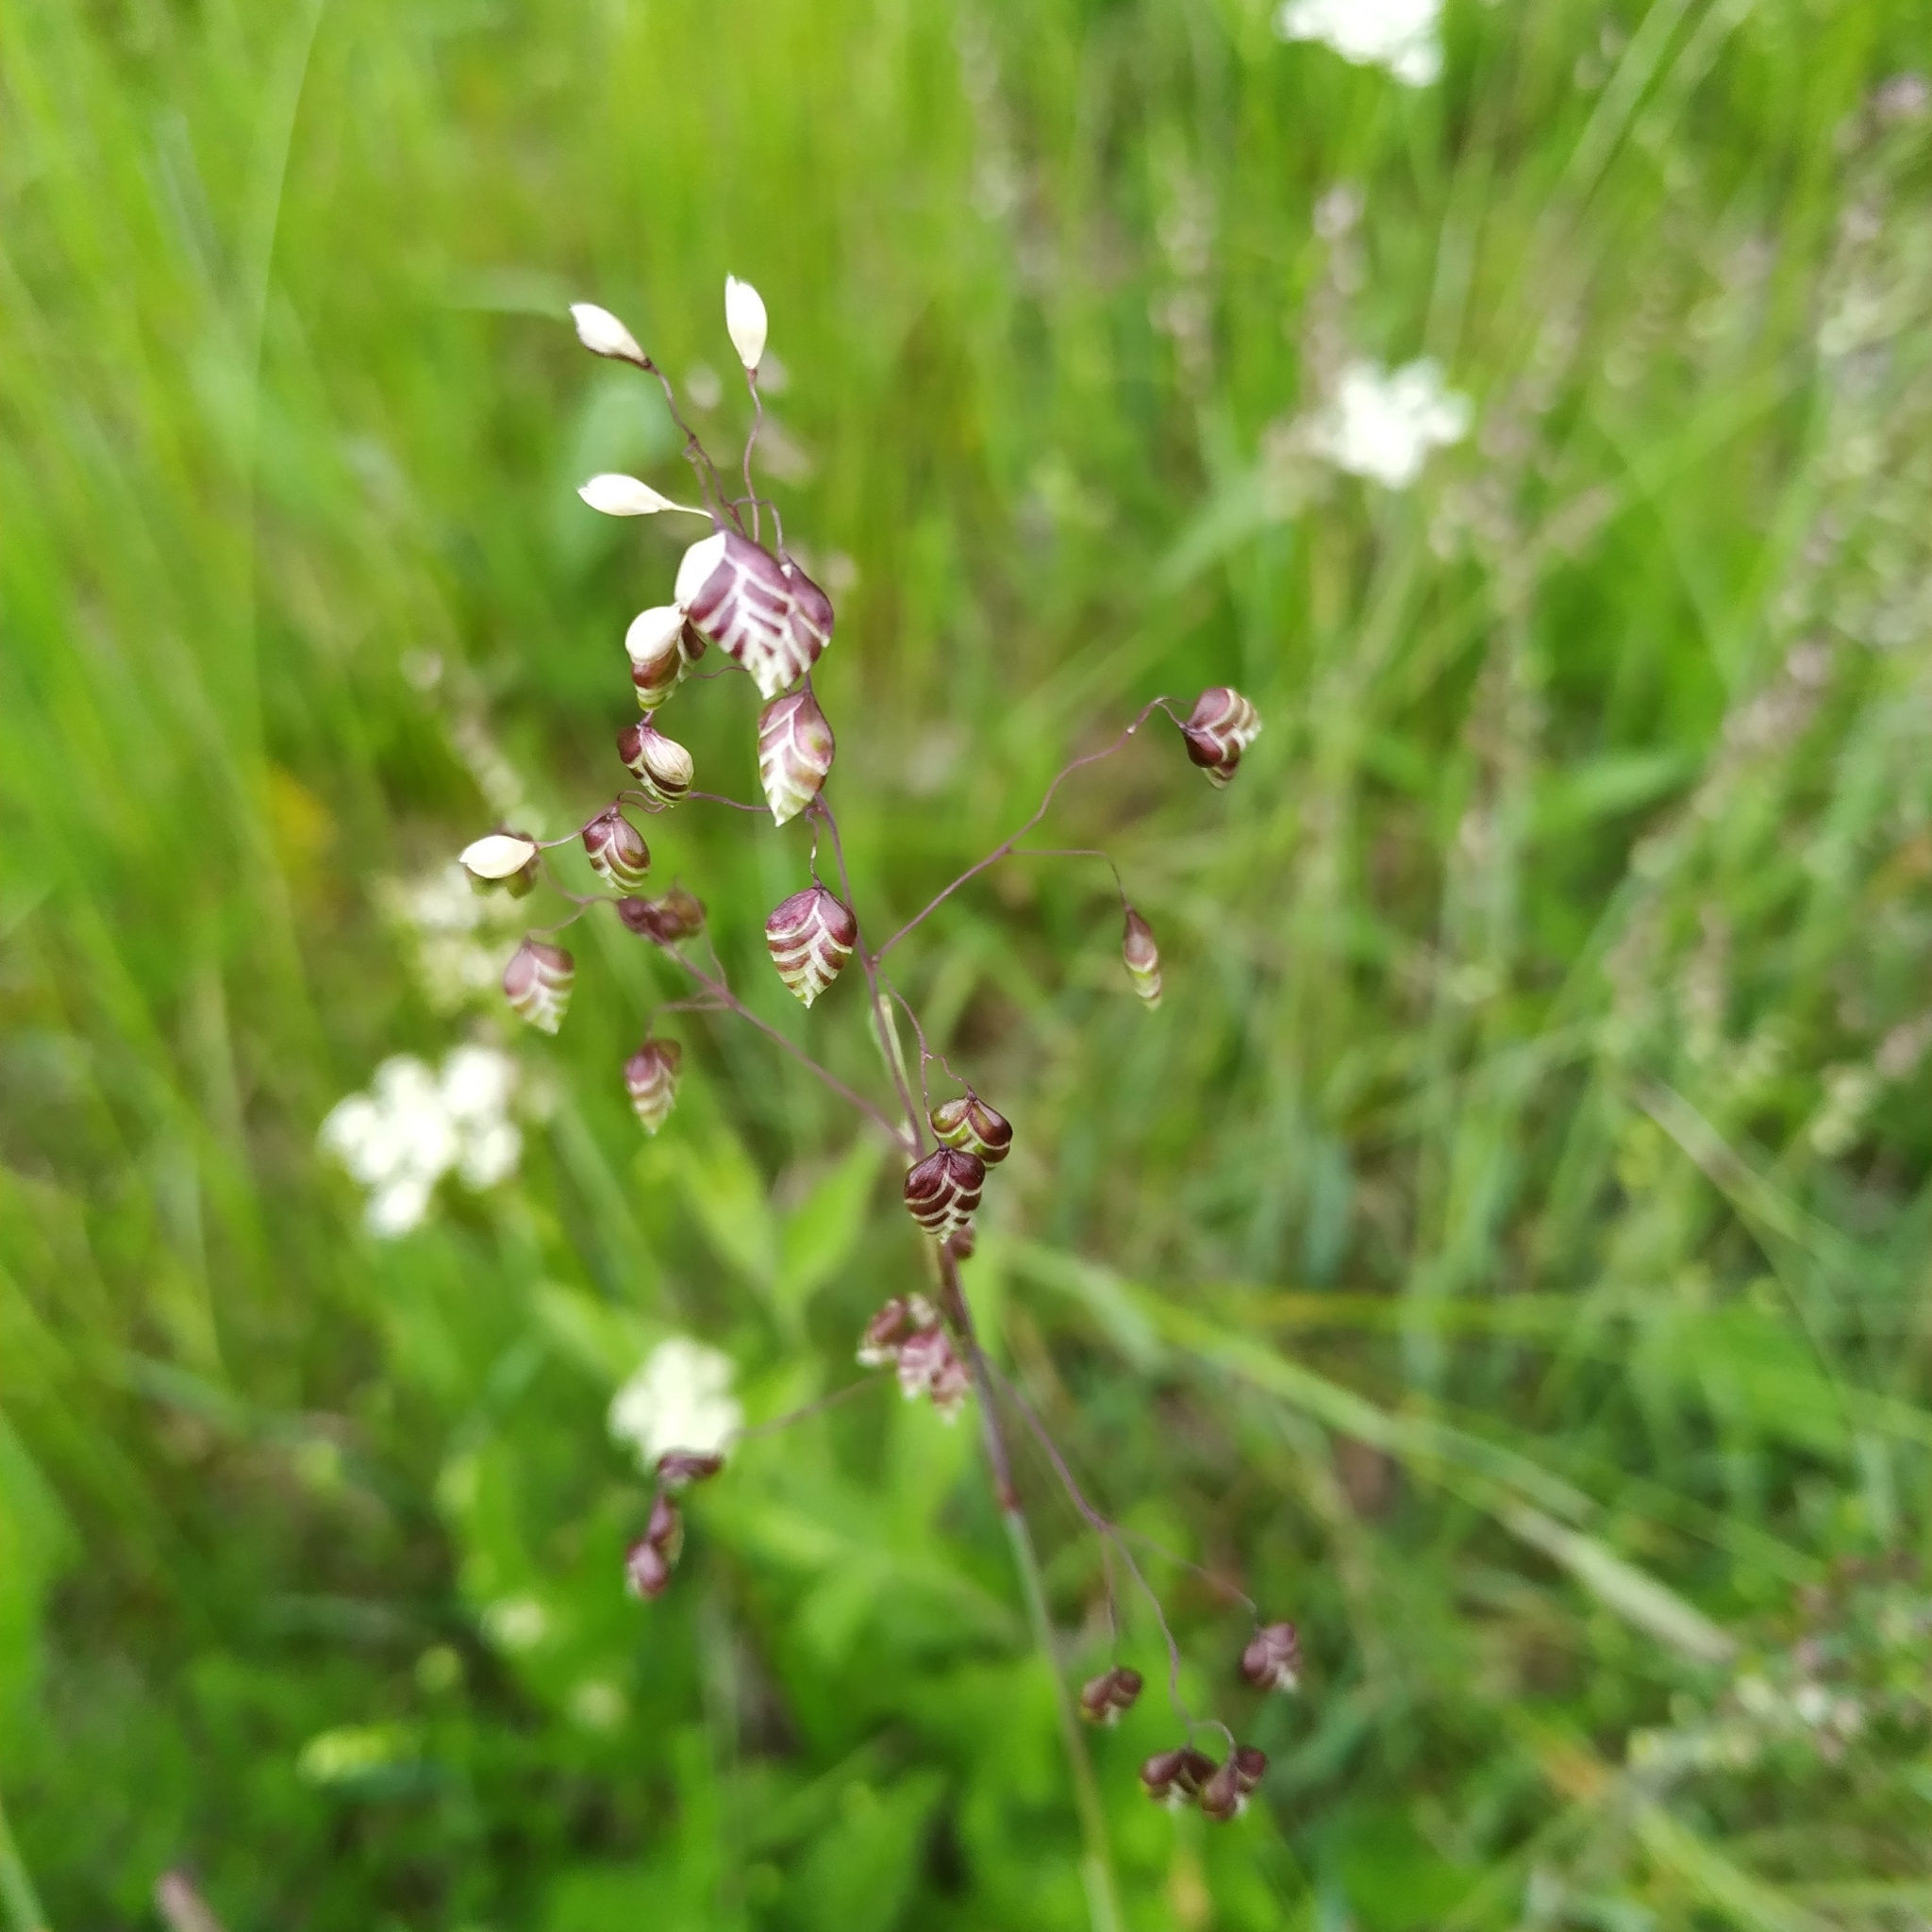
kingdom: Plantae
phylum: Tracheophyta
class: Liliopsida
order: Poales
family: Poaceae
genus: Briza
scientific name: Briza media
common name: Quaking grass
